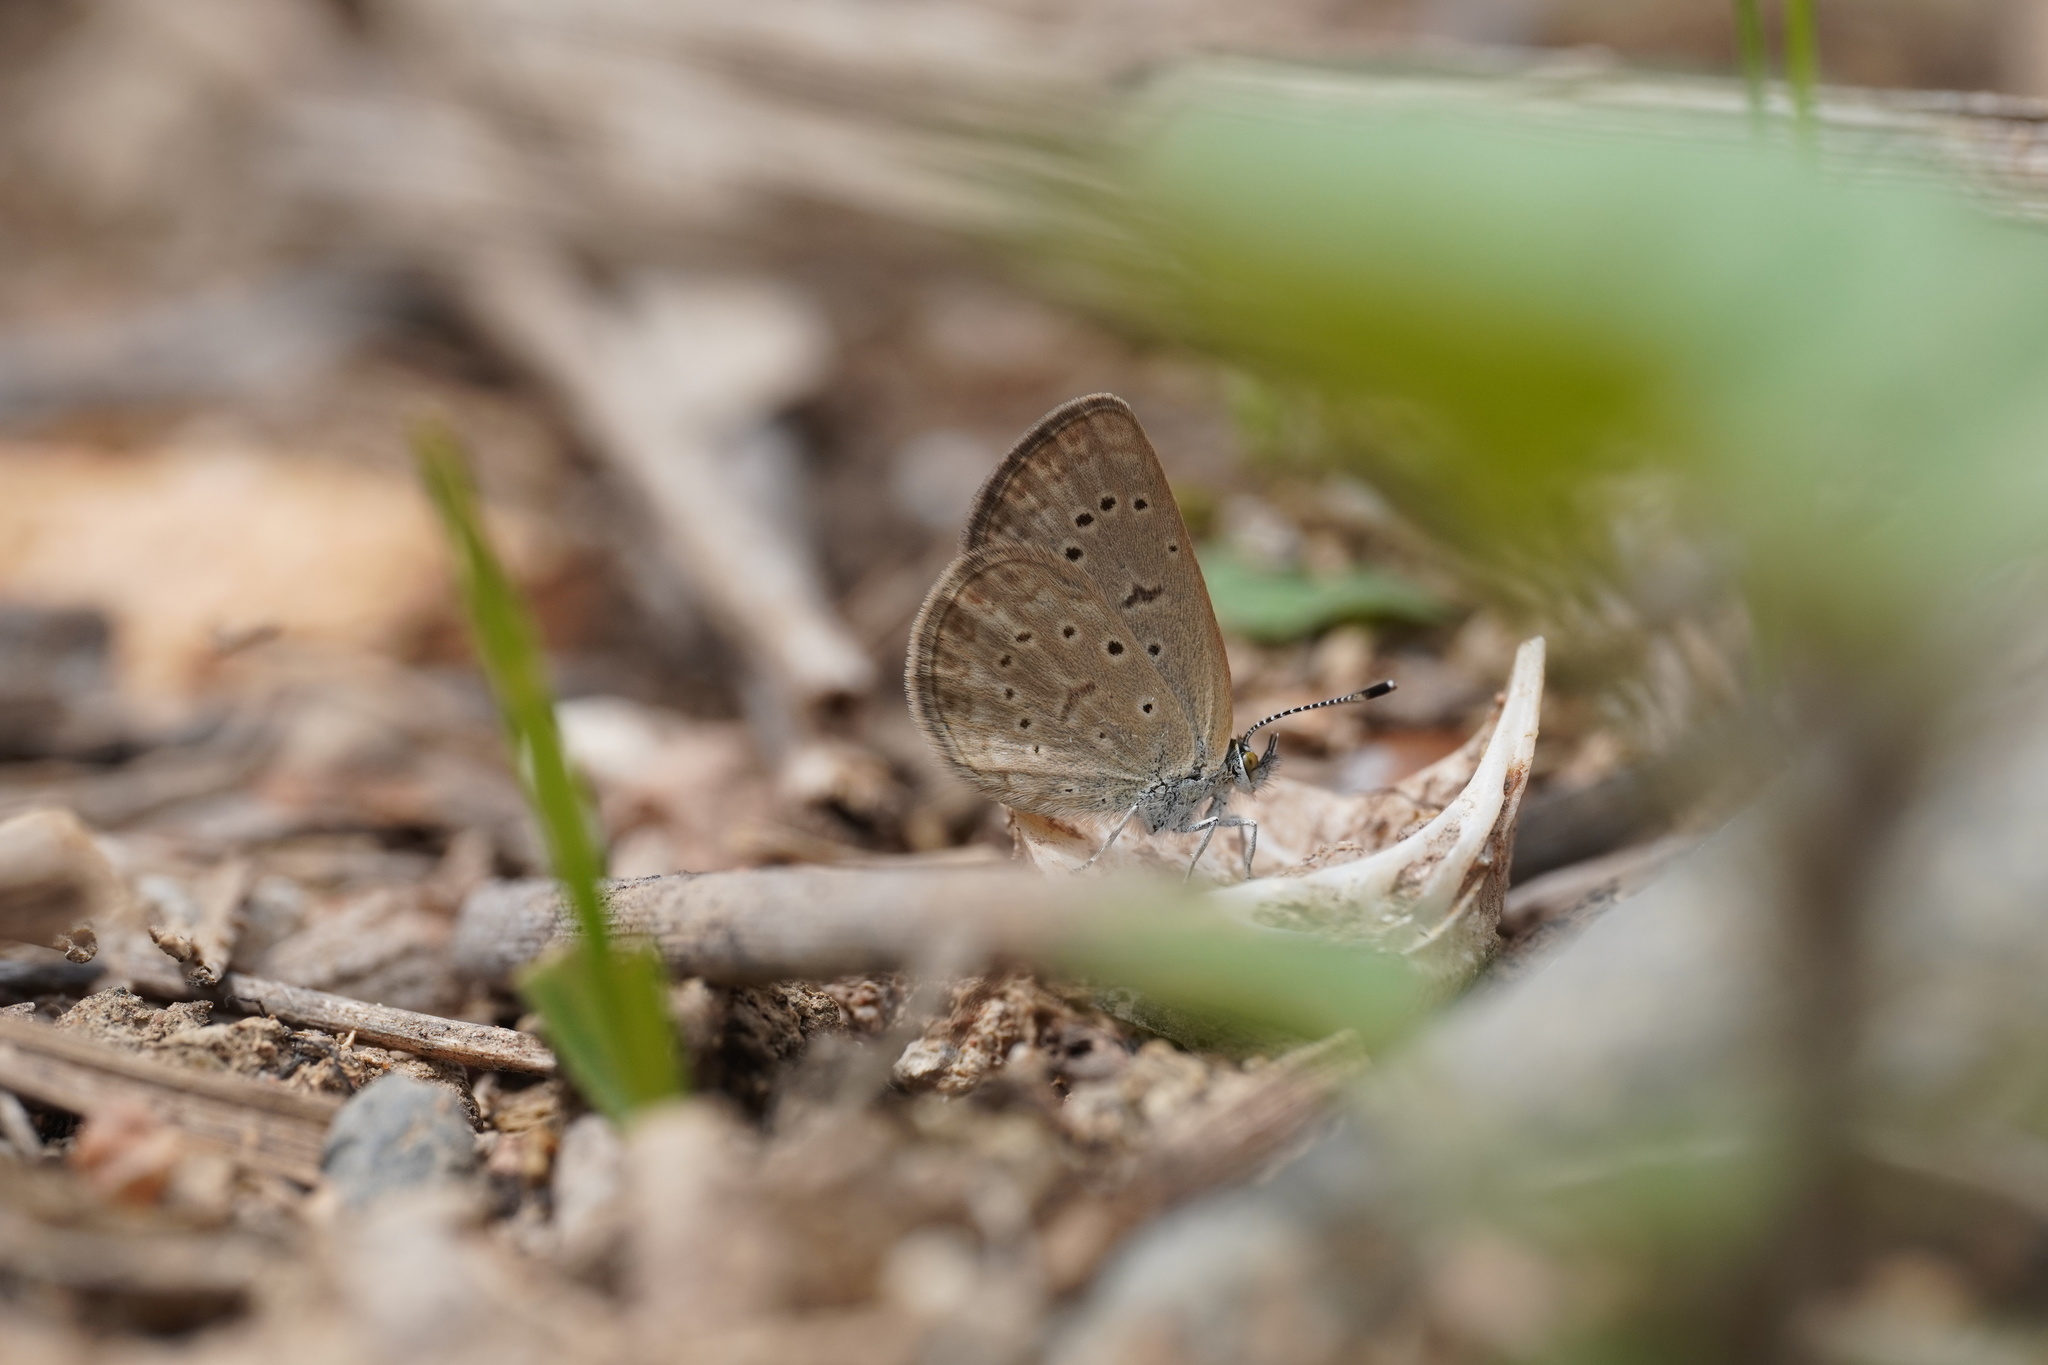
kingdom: Animalia
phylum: Arthropoda
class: Insecta
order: Lepidoptera
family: Lycaenidae
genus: Zizeeria
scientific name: Zizeeria knysna
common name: African grass blue
